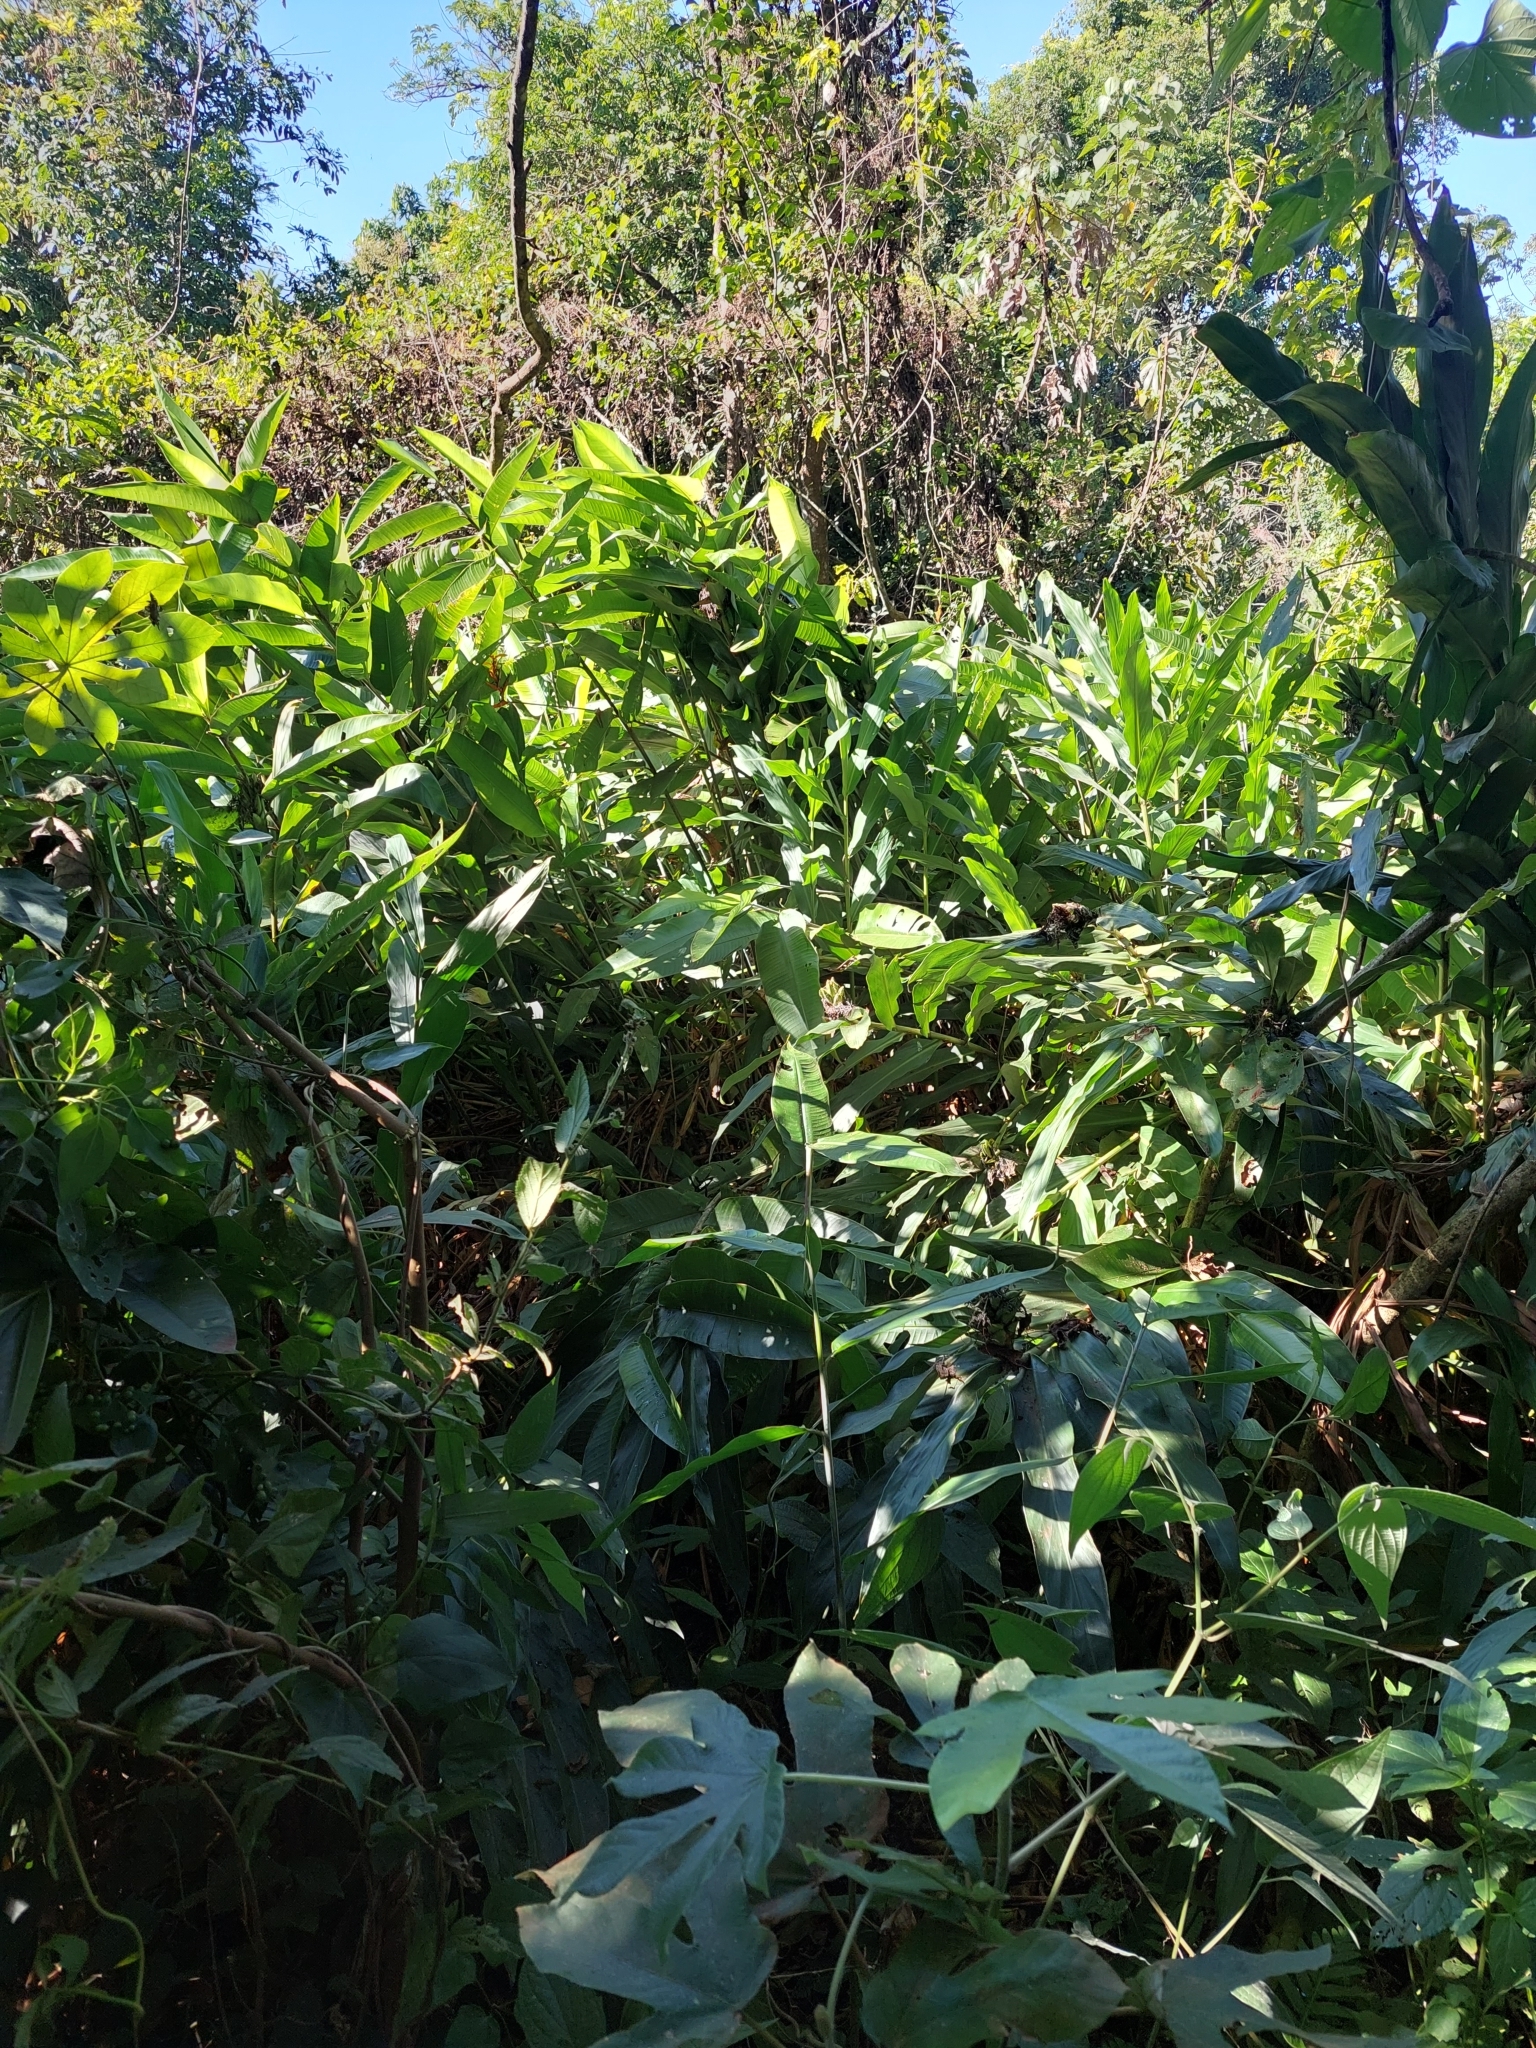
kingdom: Plantae
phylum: Tracheophyta
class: Liliopsida
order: Zingiberales
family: Zingiberaceae
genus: Hedychium
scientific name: Hedychium coronarium
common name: White garland-lily
